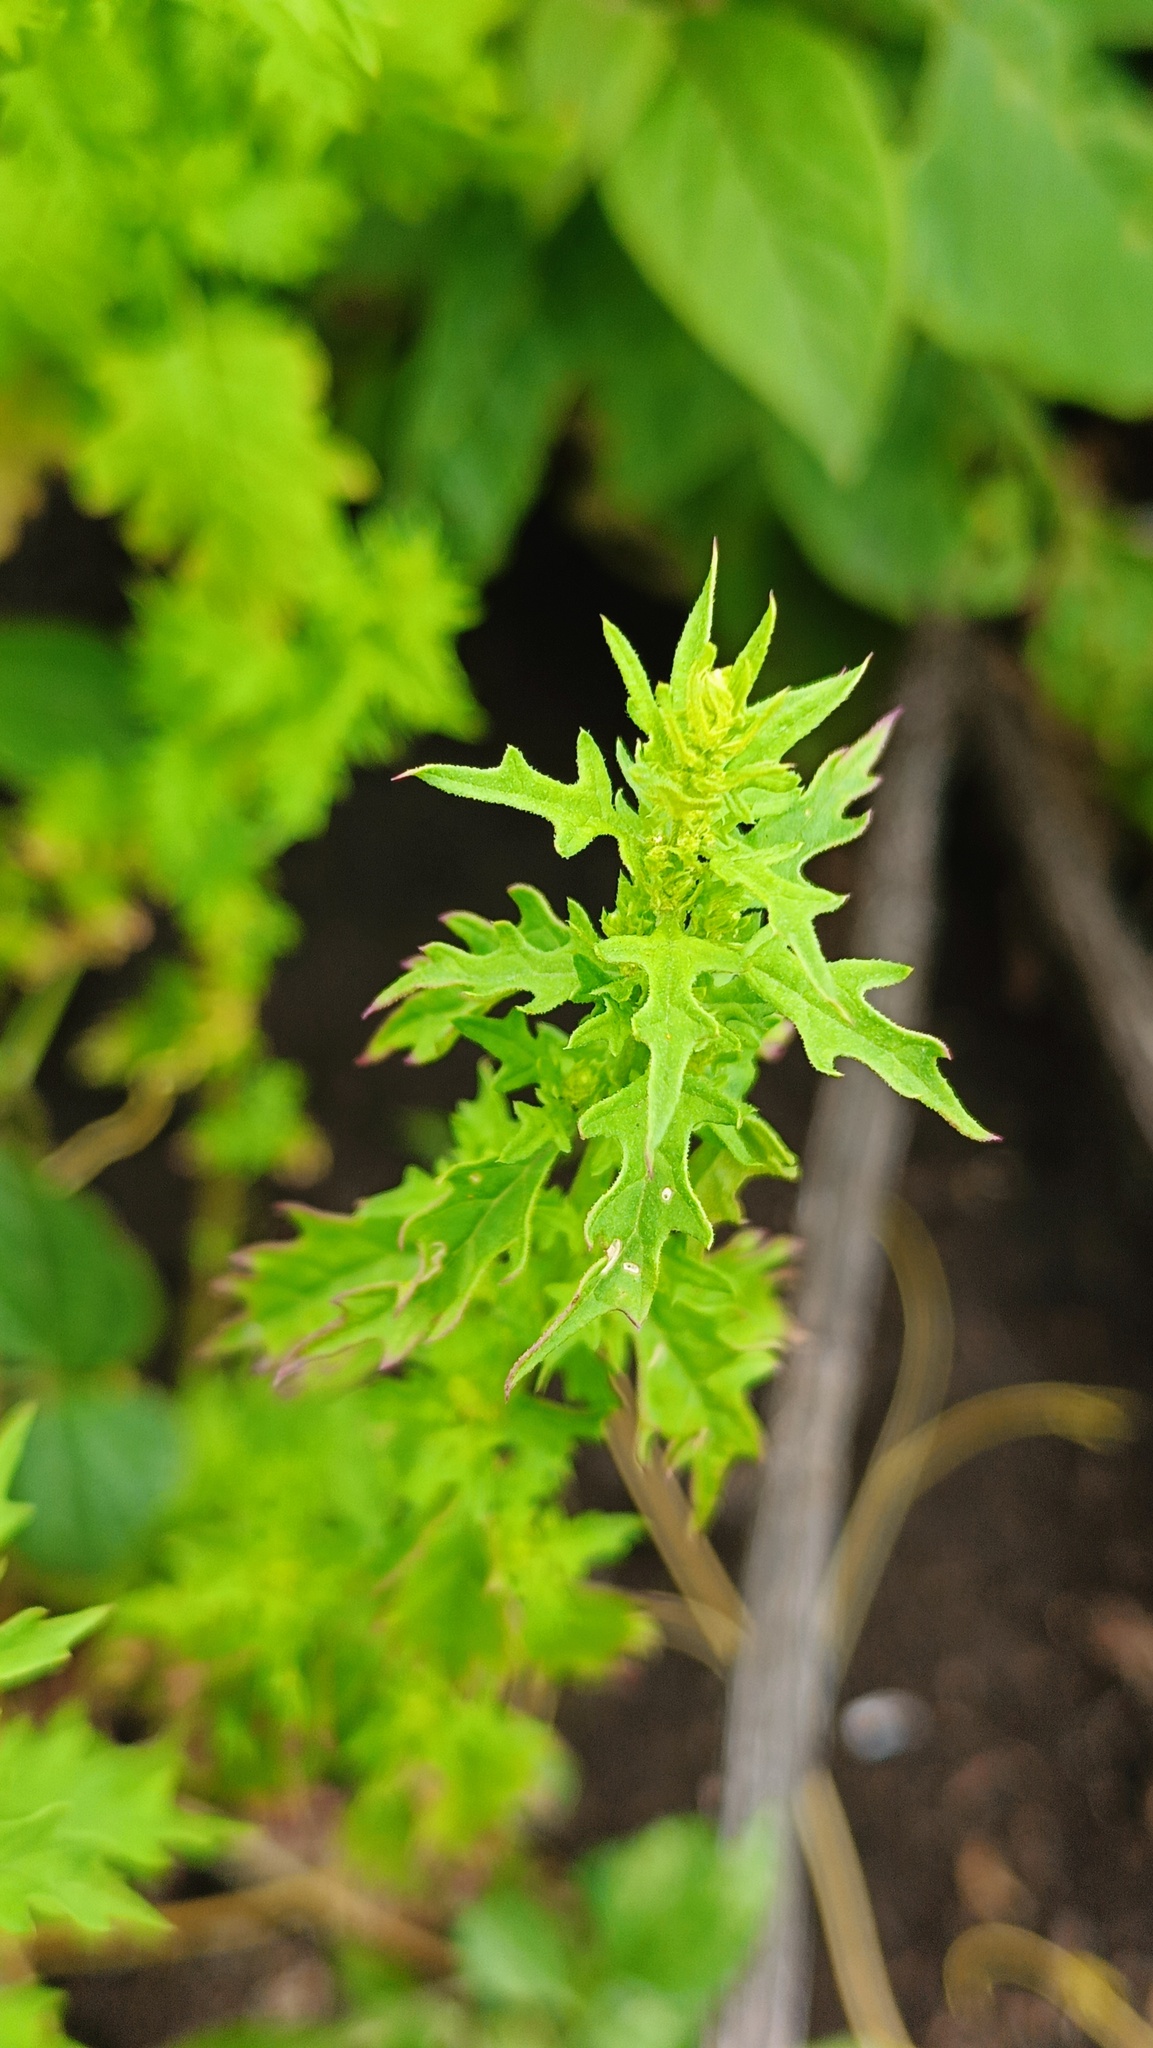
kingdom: Plantae
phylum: Tracheophyta
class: Magnoliopsida
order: Caryophyllales
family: Amaranthaceae
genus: Dysphania
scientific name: Dysphania incisa
